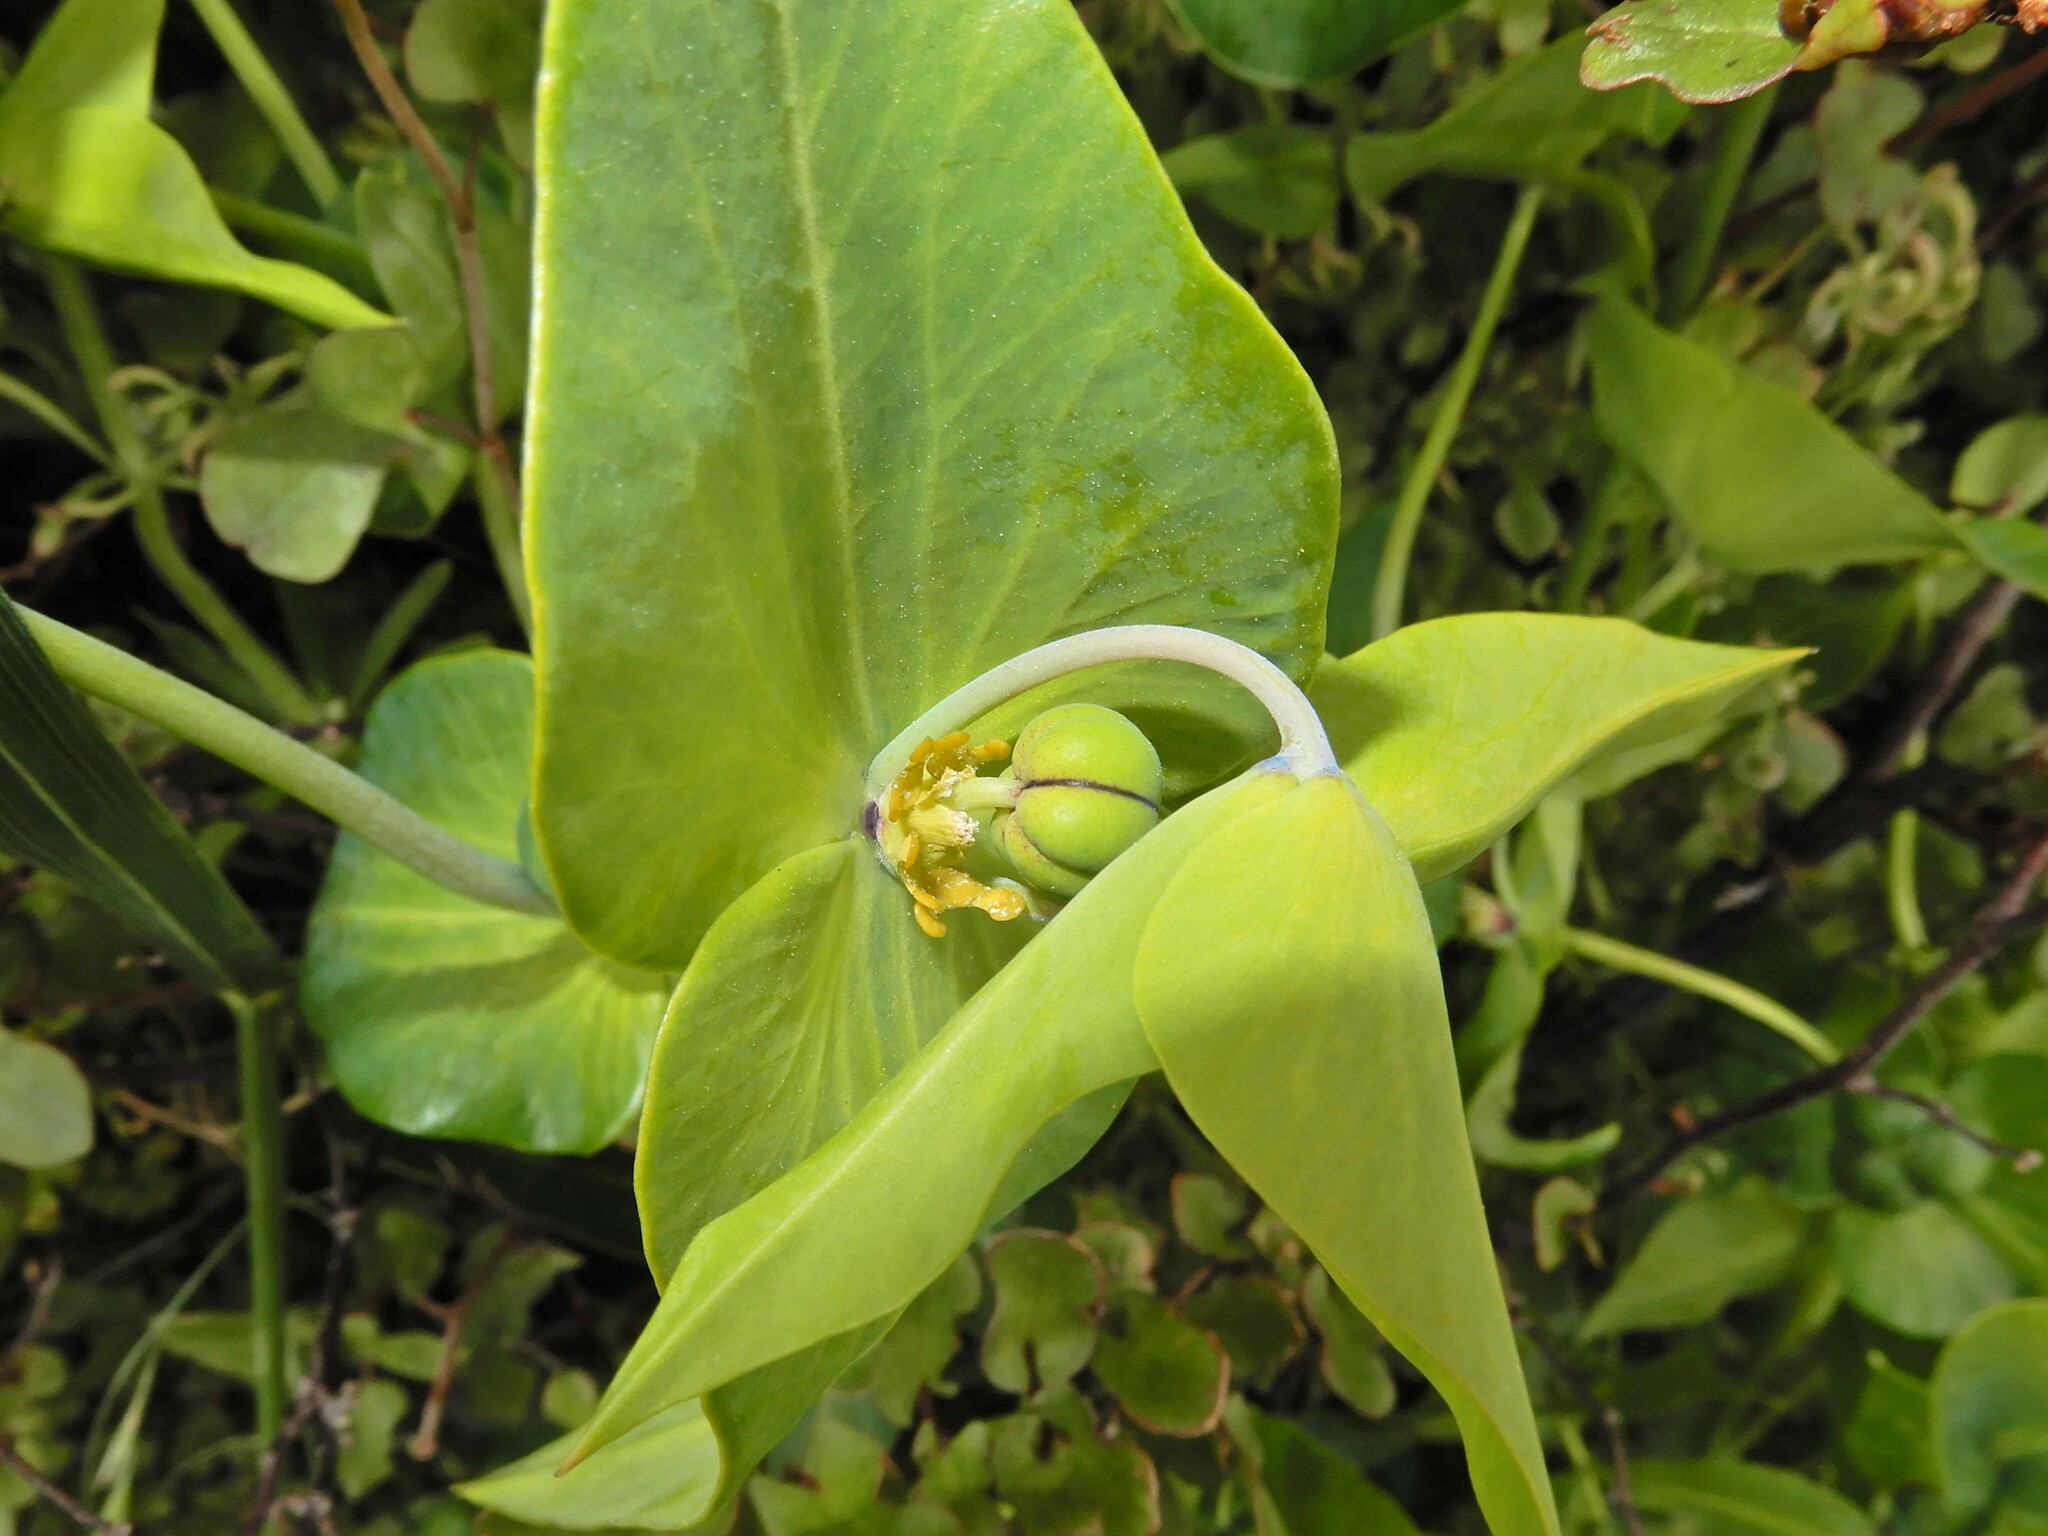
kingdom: Plantae
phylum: Tracheophyta
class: Magnoliopsida
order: Malpighiales
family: Euphorbiaceae
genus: Euphorbia
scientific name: Euphorbia lathyris
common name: Caper spurge
